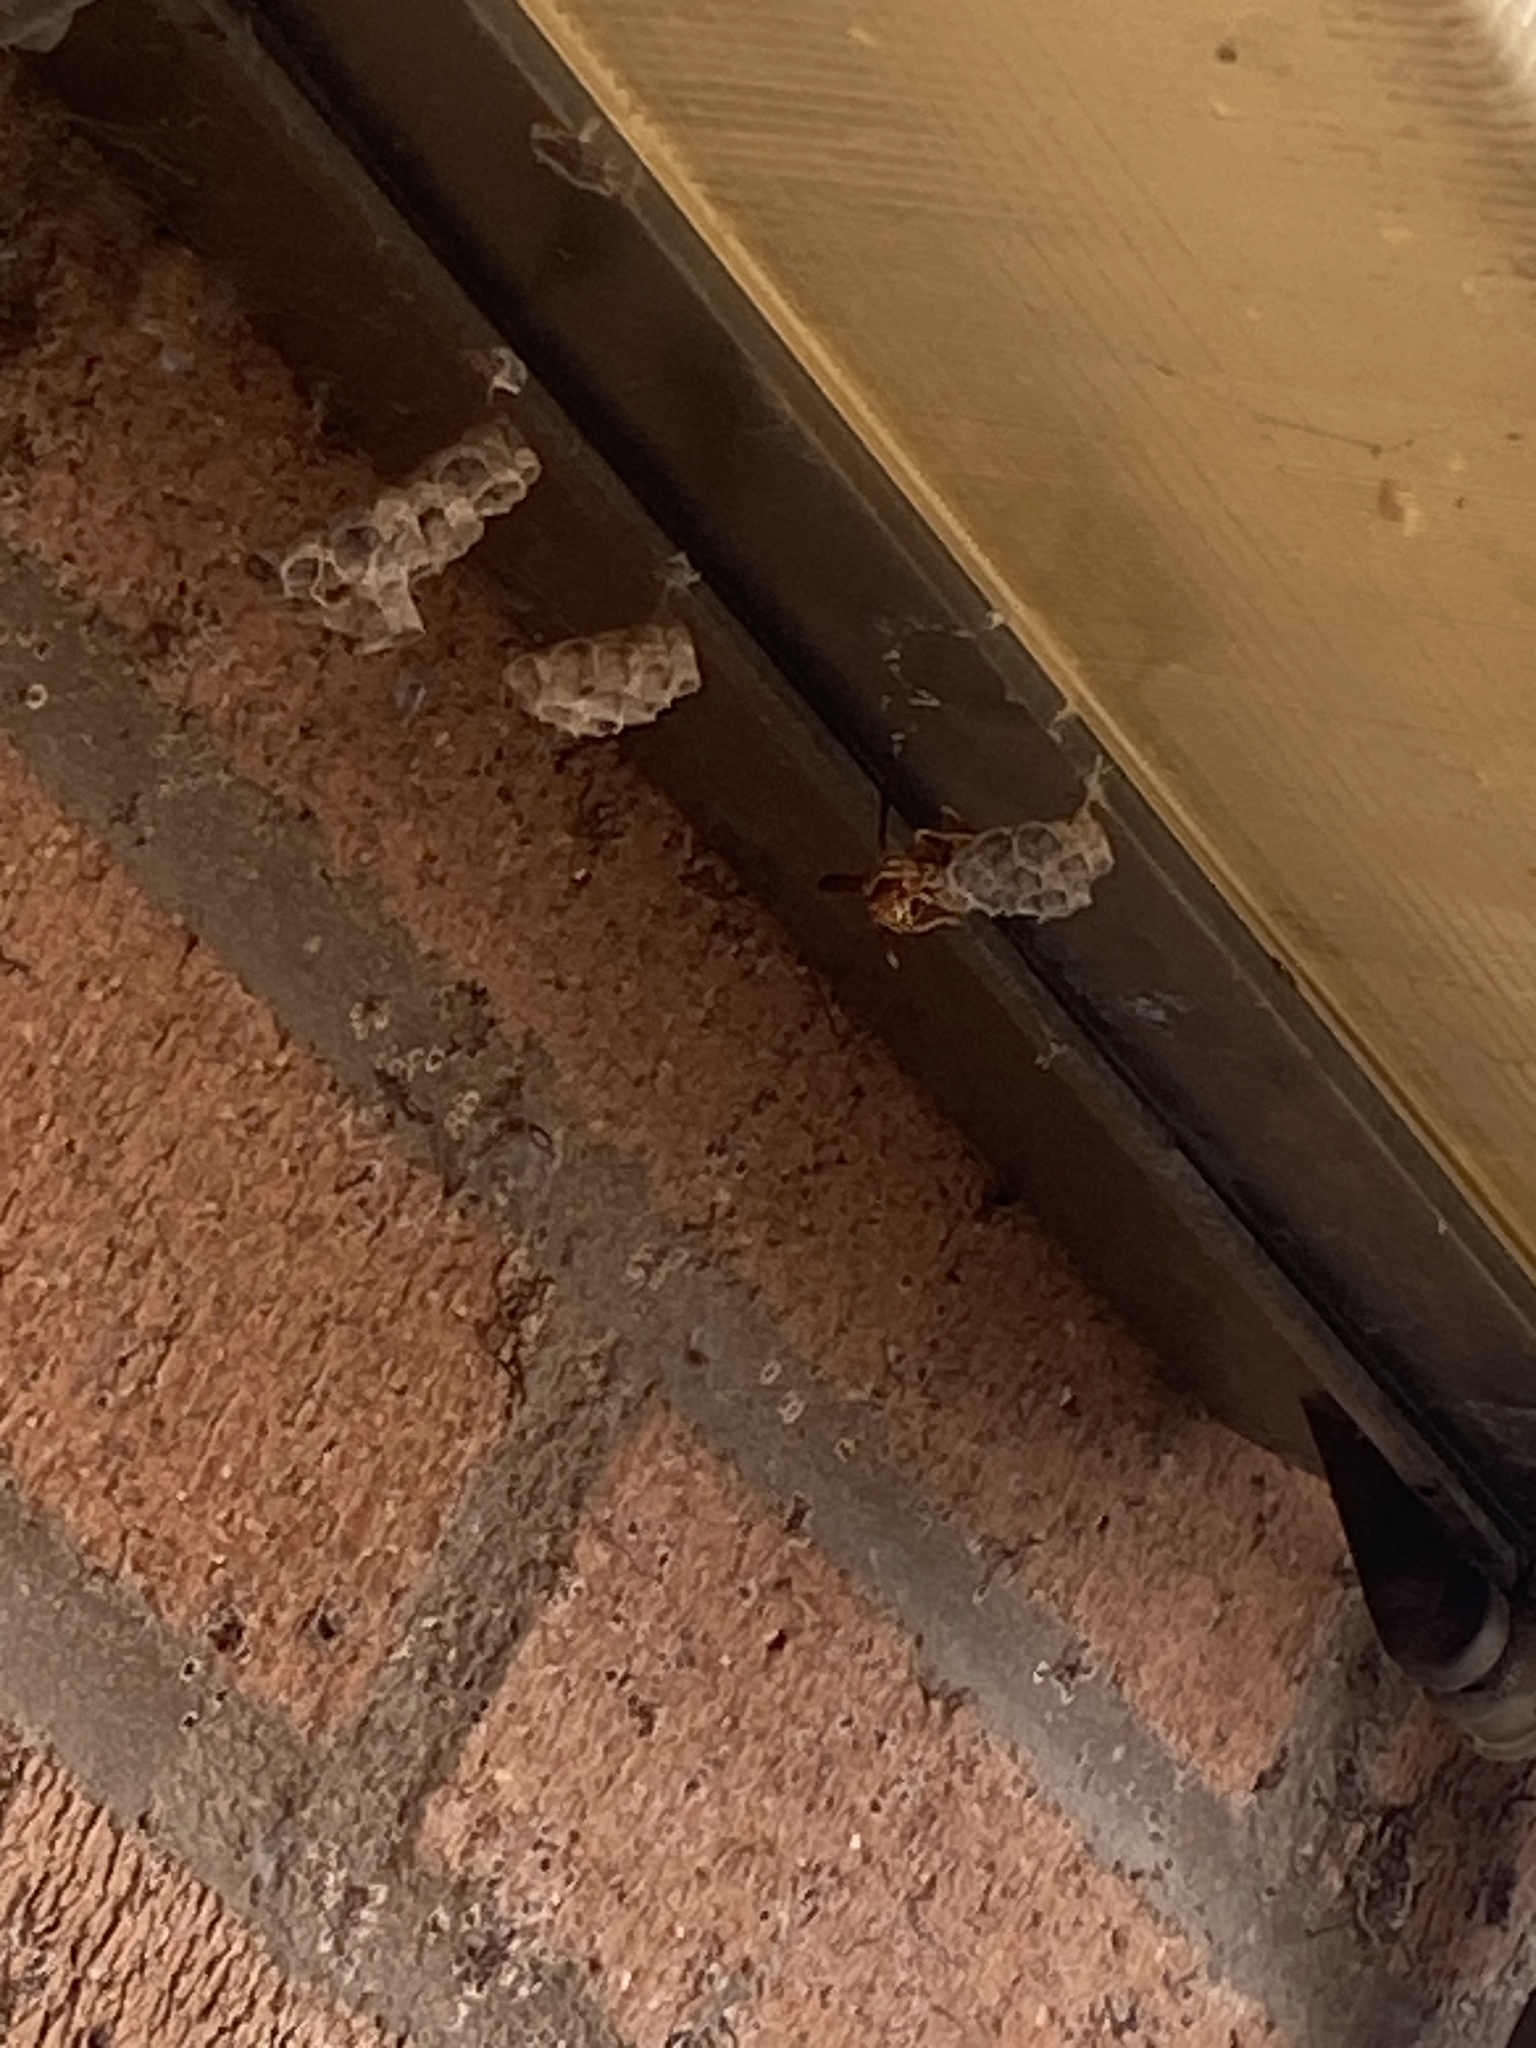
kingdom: Animalia
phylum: Arthropoda
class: Insecta
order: Hymenoptera
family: Eumenidae
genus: Polistes
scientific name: Polistes
